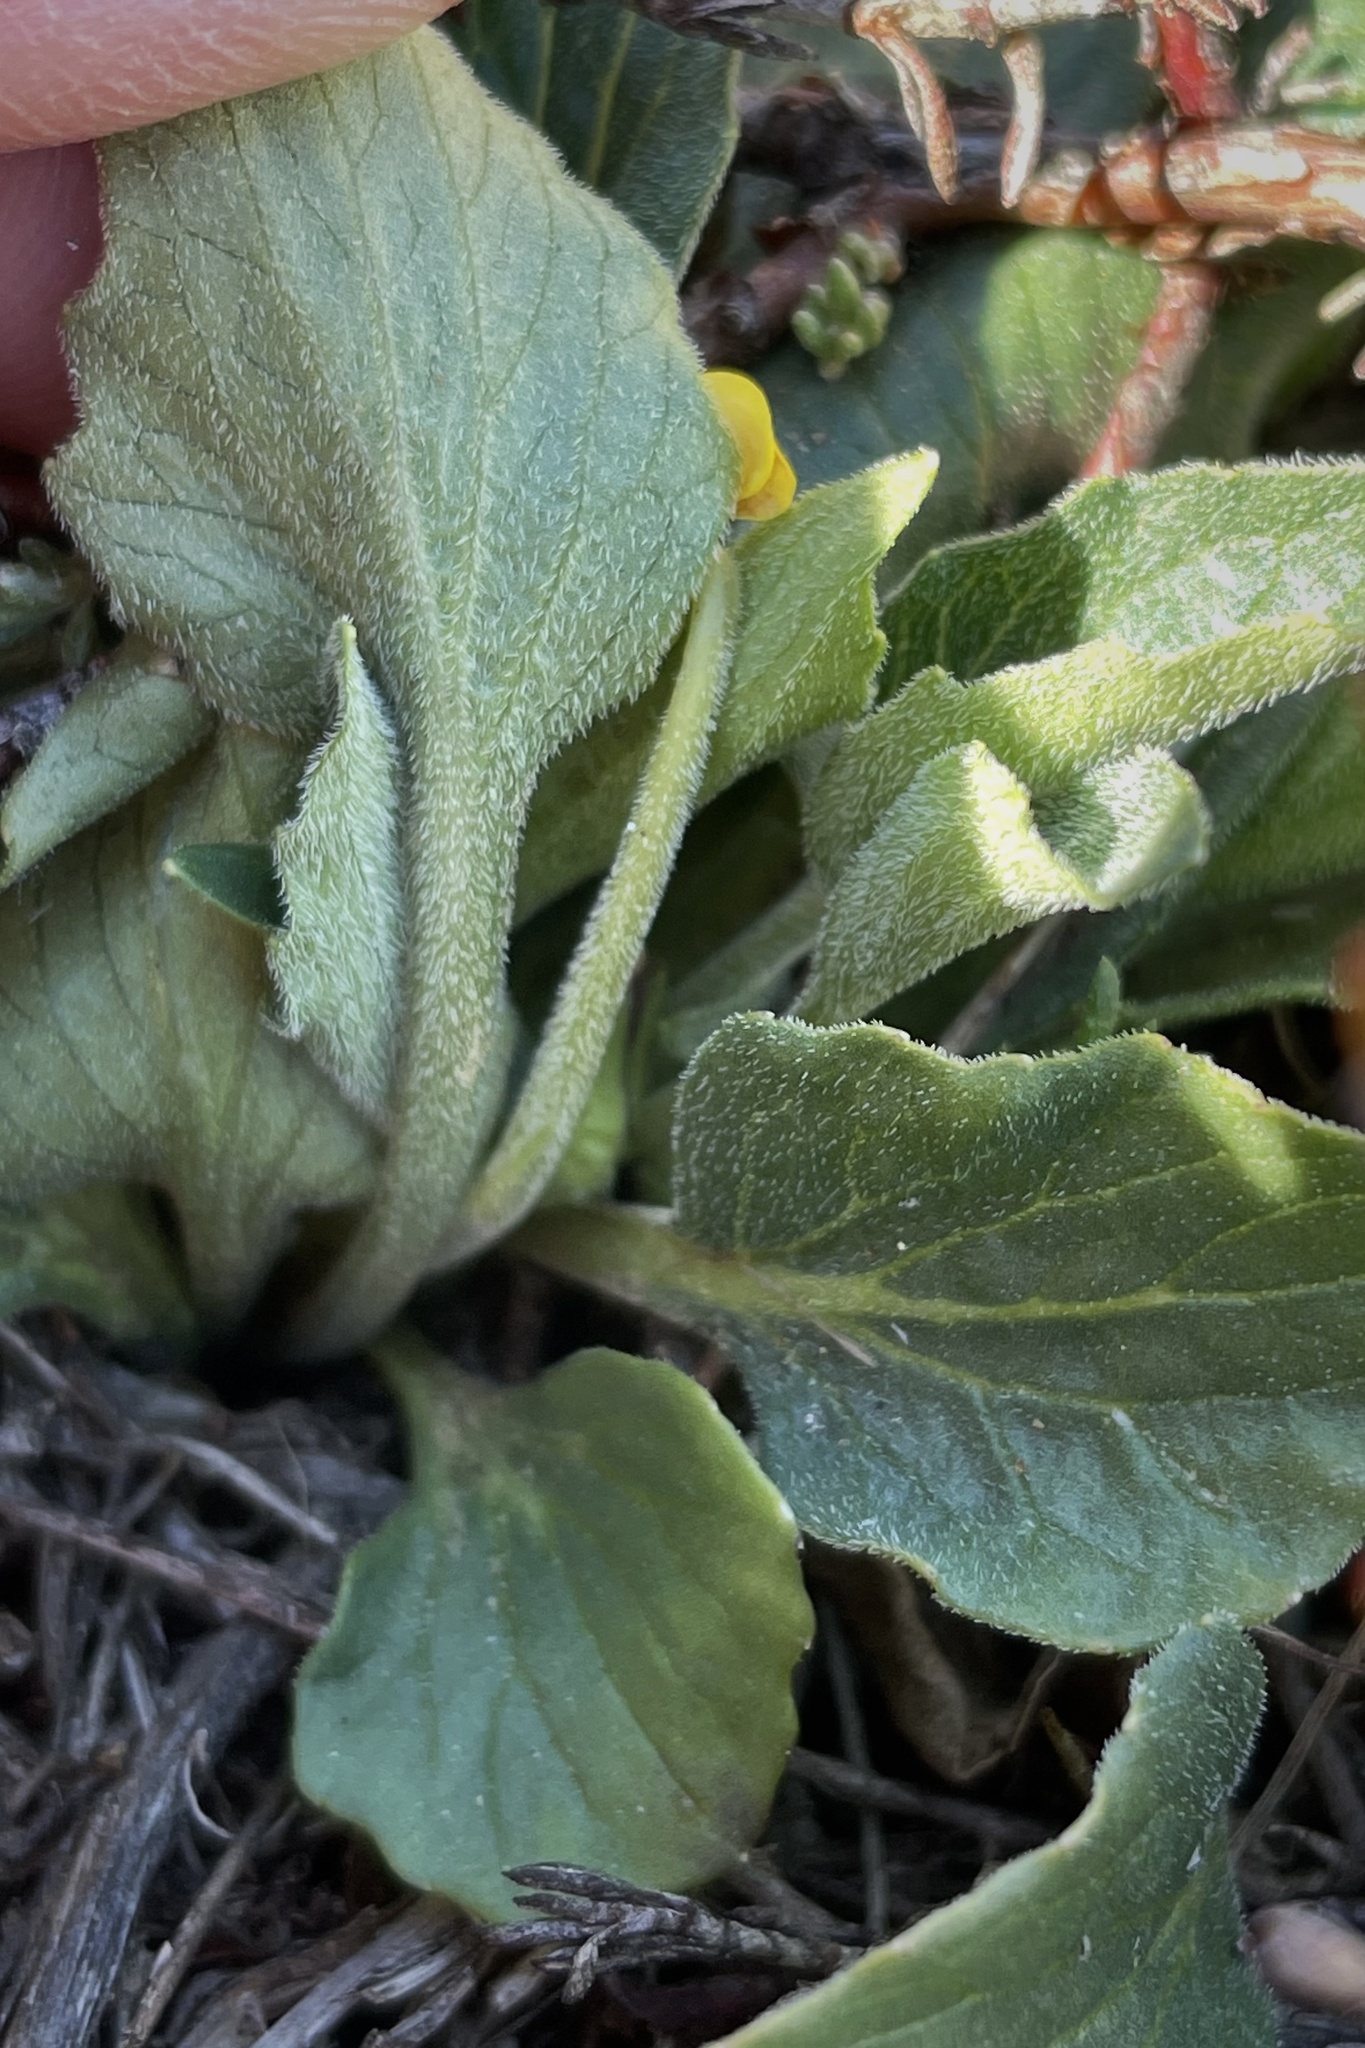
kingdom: Plantae
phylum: Tracheophyta
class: Magnoliopsida
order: Malpighiales
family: Violaceae
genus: Viola
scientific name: Viola purpurea
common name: Pine violet
